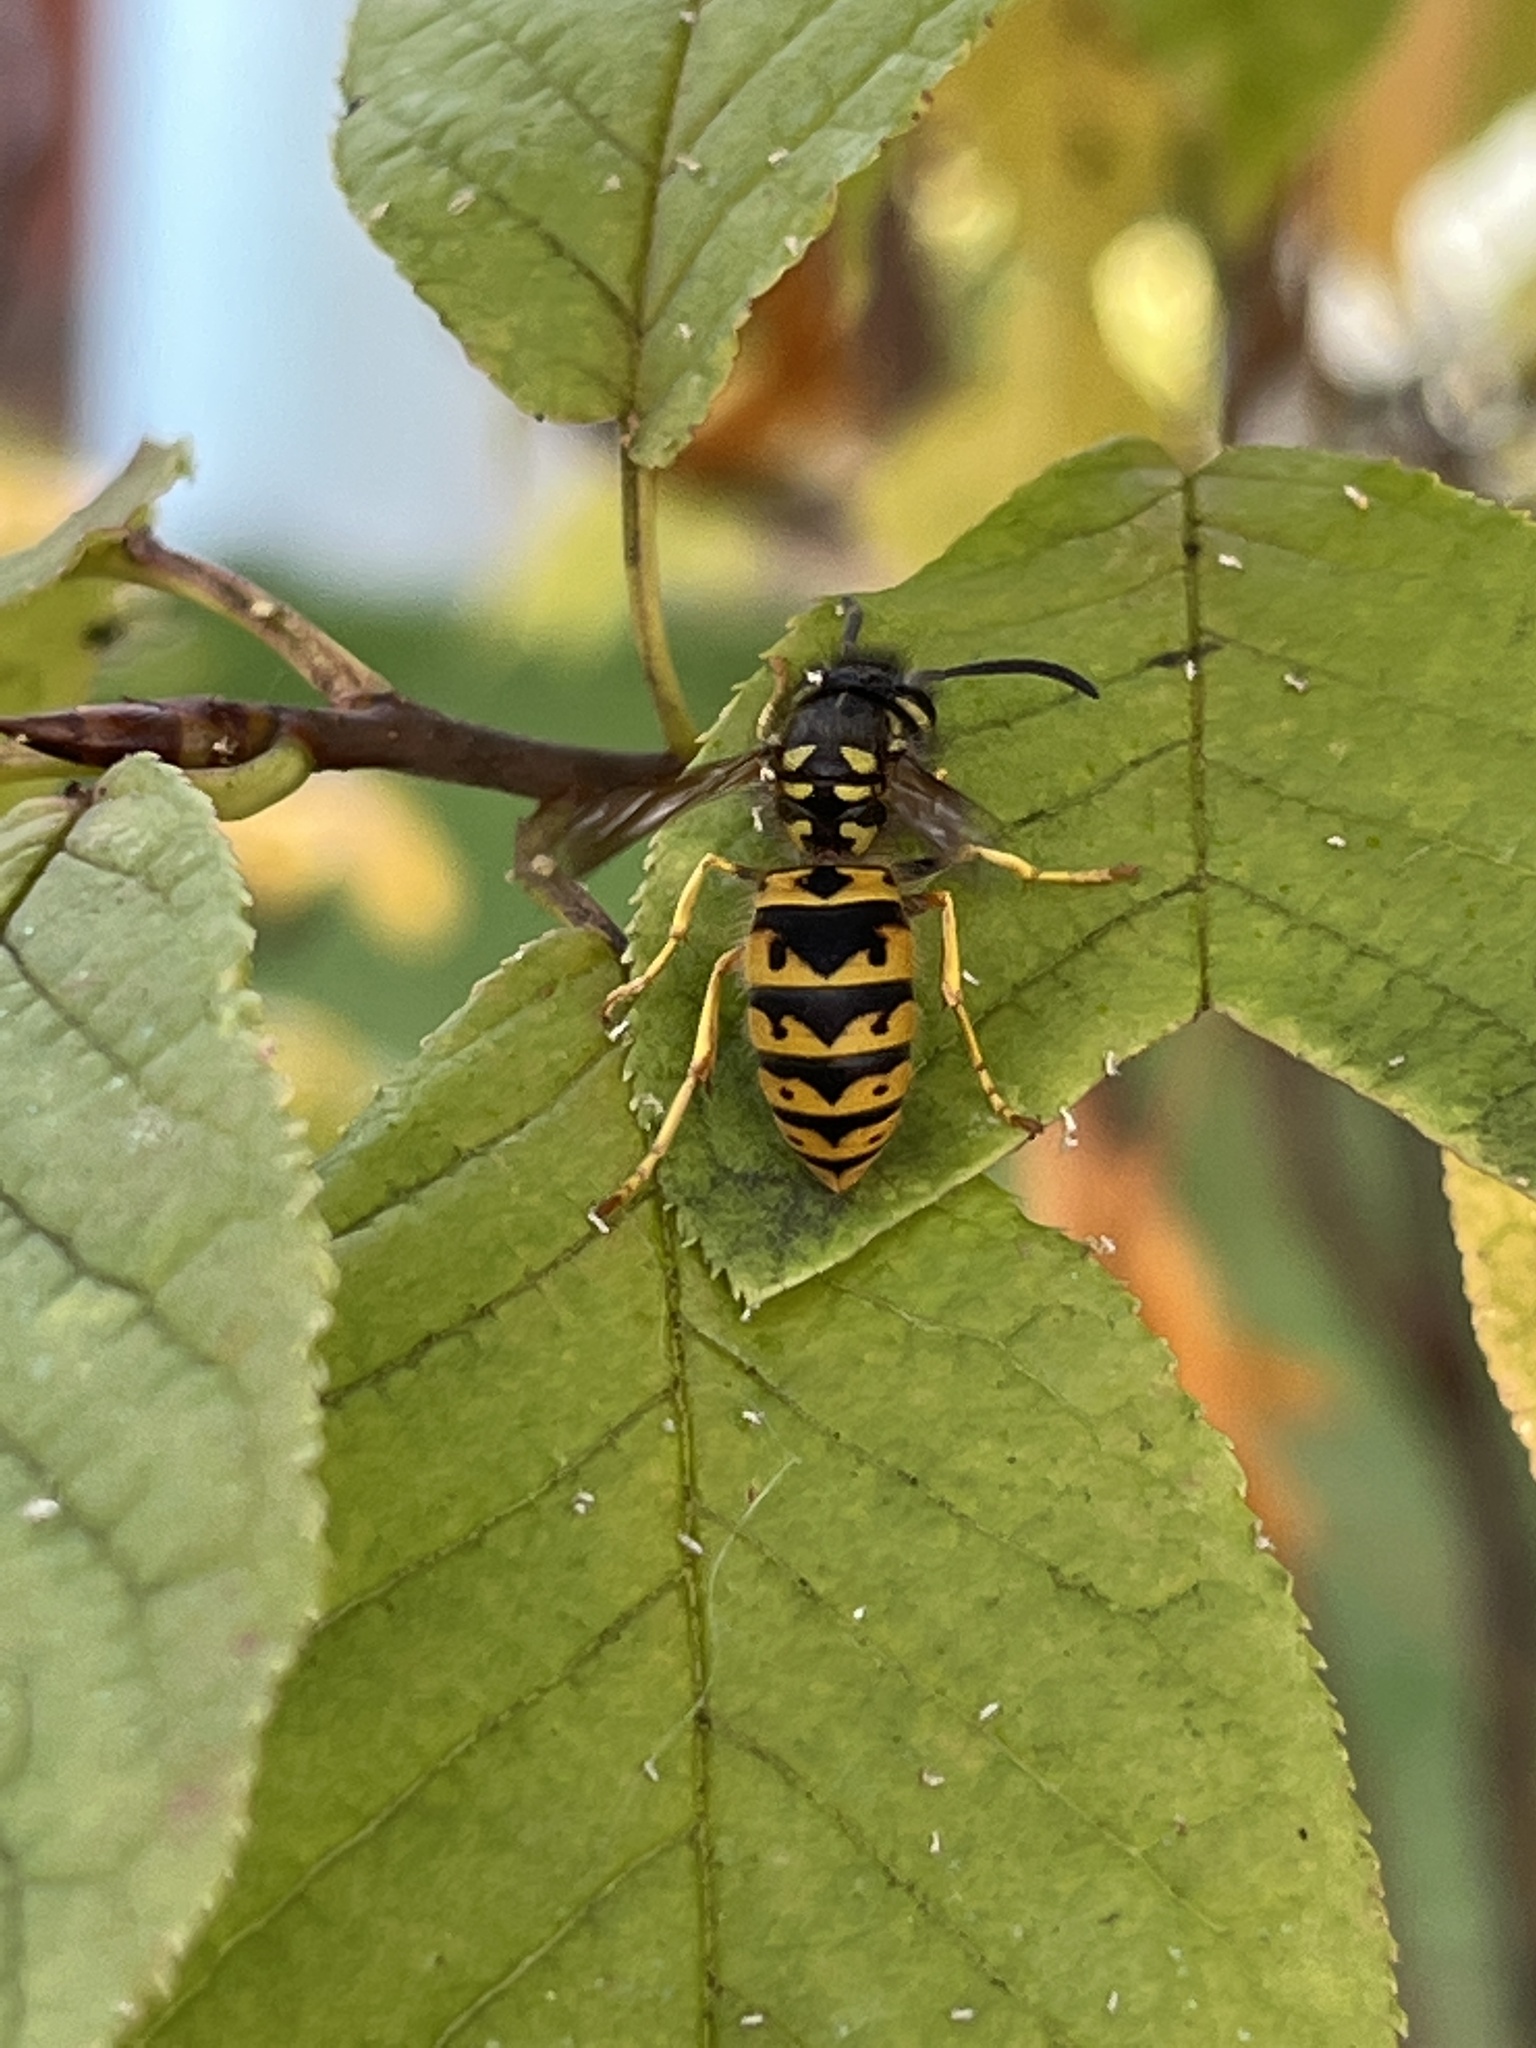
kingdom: Animalia
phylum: Arthropoda
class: Insecta
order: Hymenoptera
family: Vespidae
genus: Vespula
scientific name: Vespula germanica
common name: German wasp
